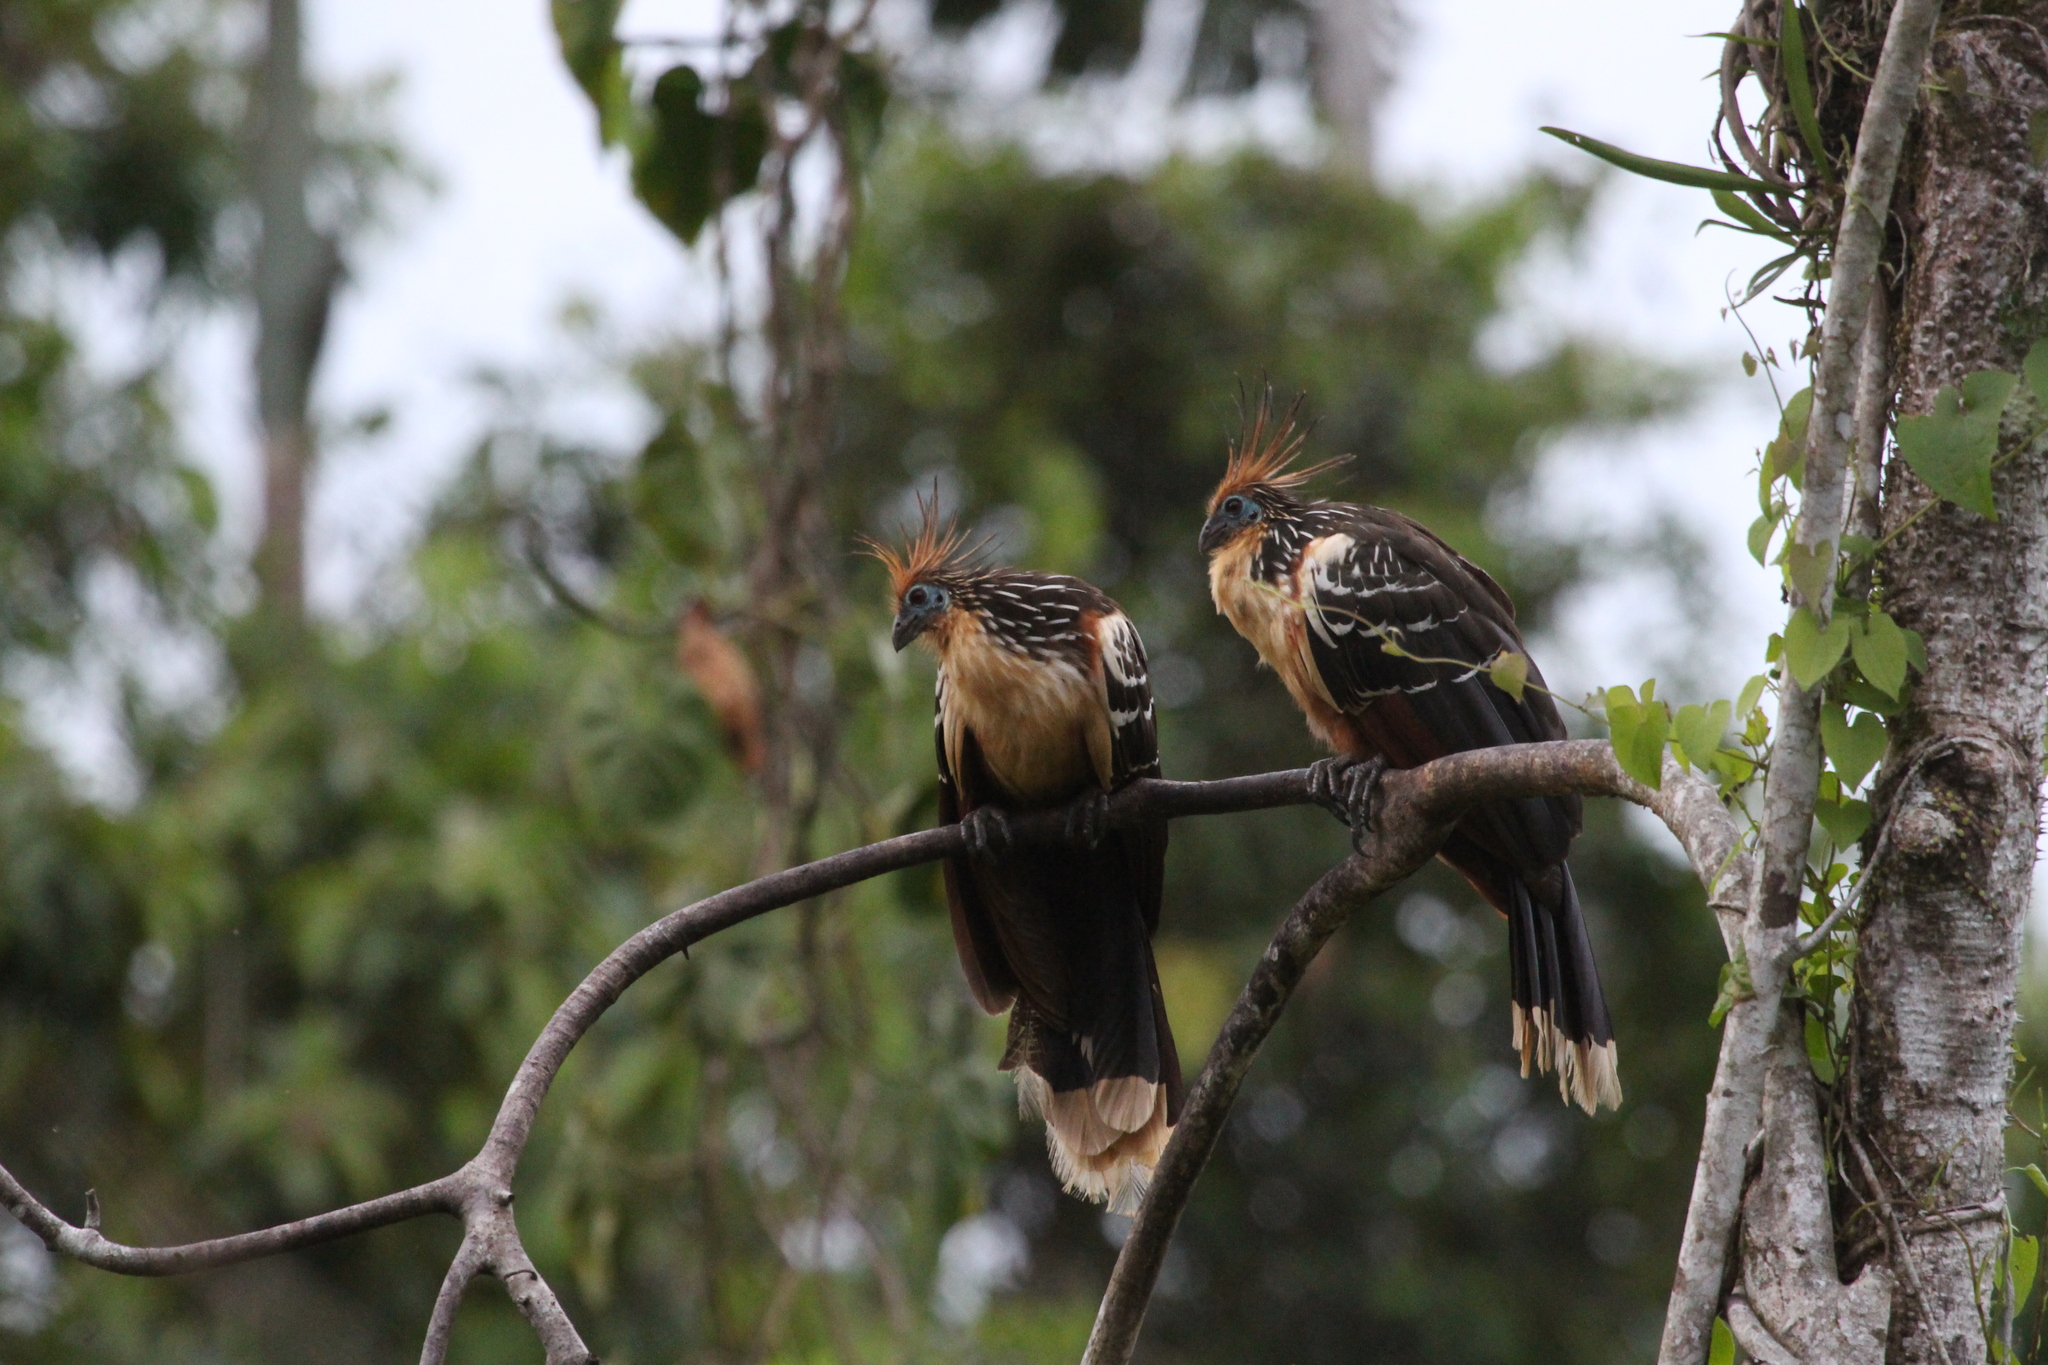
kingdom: Animalia
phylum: Chordata
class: Aves
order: Opisthocomiformes
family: Opisthocomidae
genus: Opisthocomus
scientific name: Opisthocomus hoazin
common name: Hoatzin
